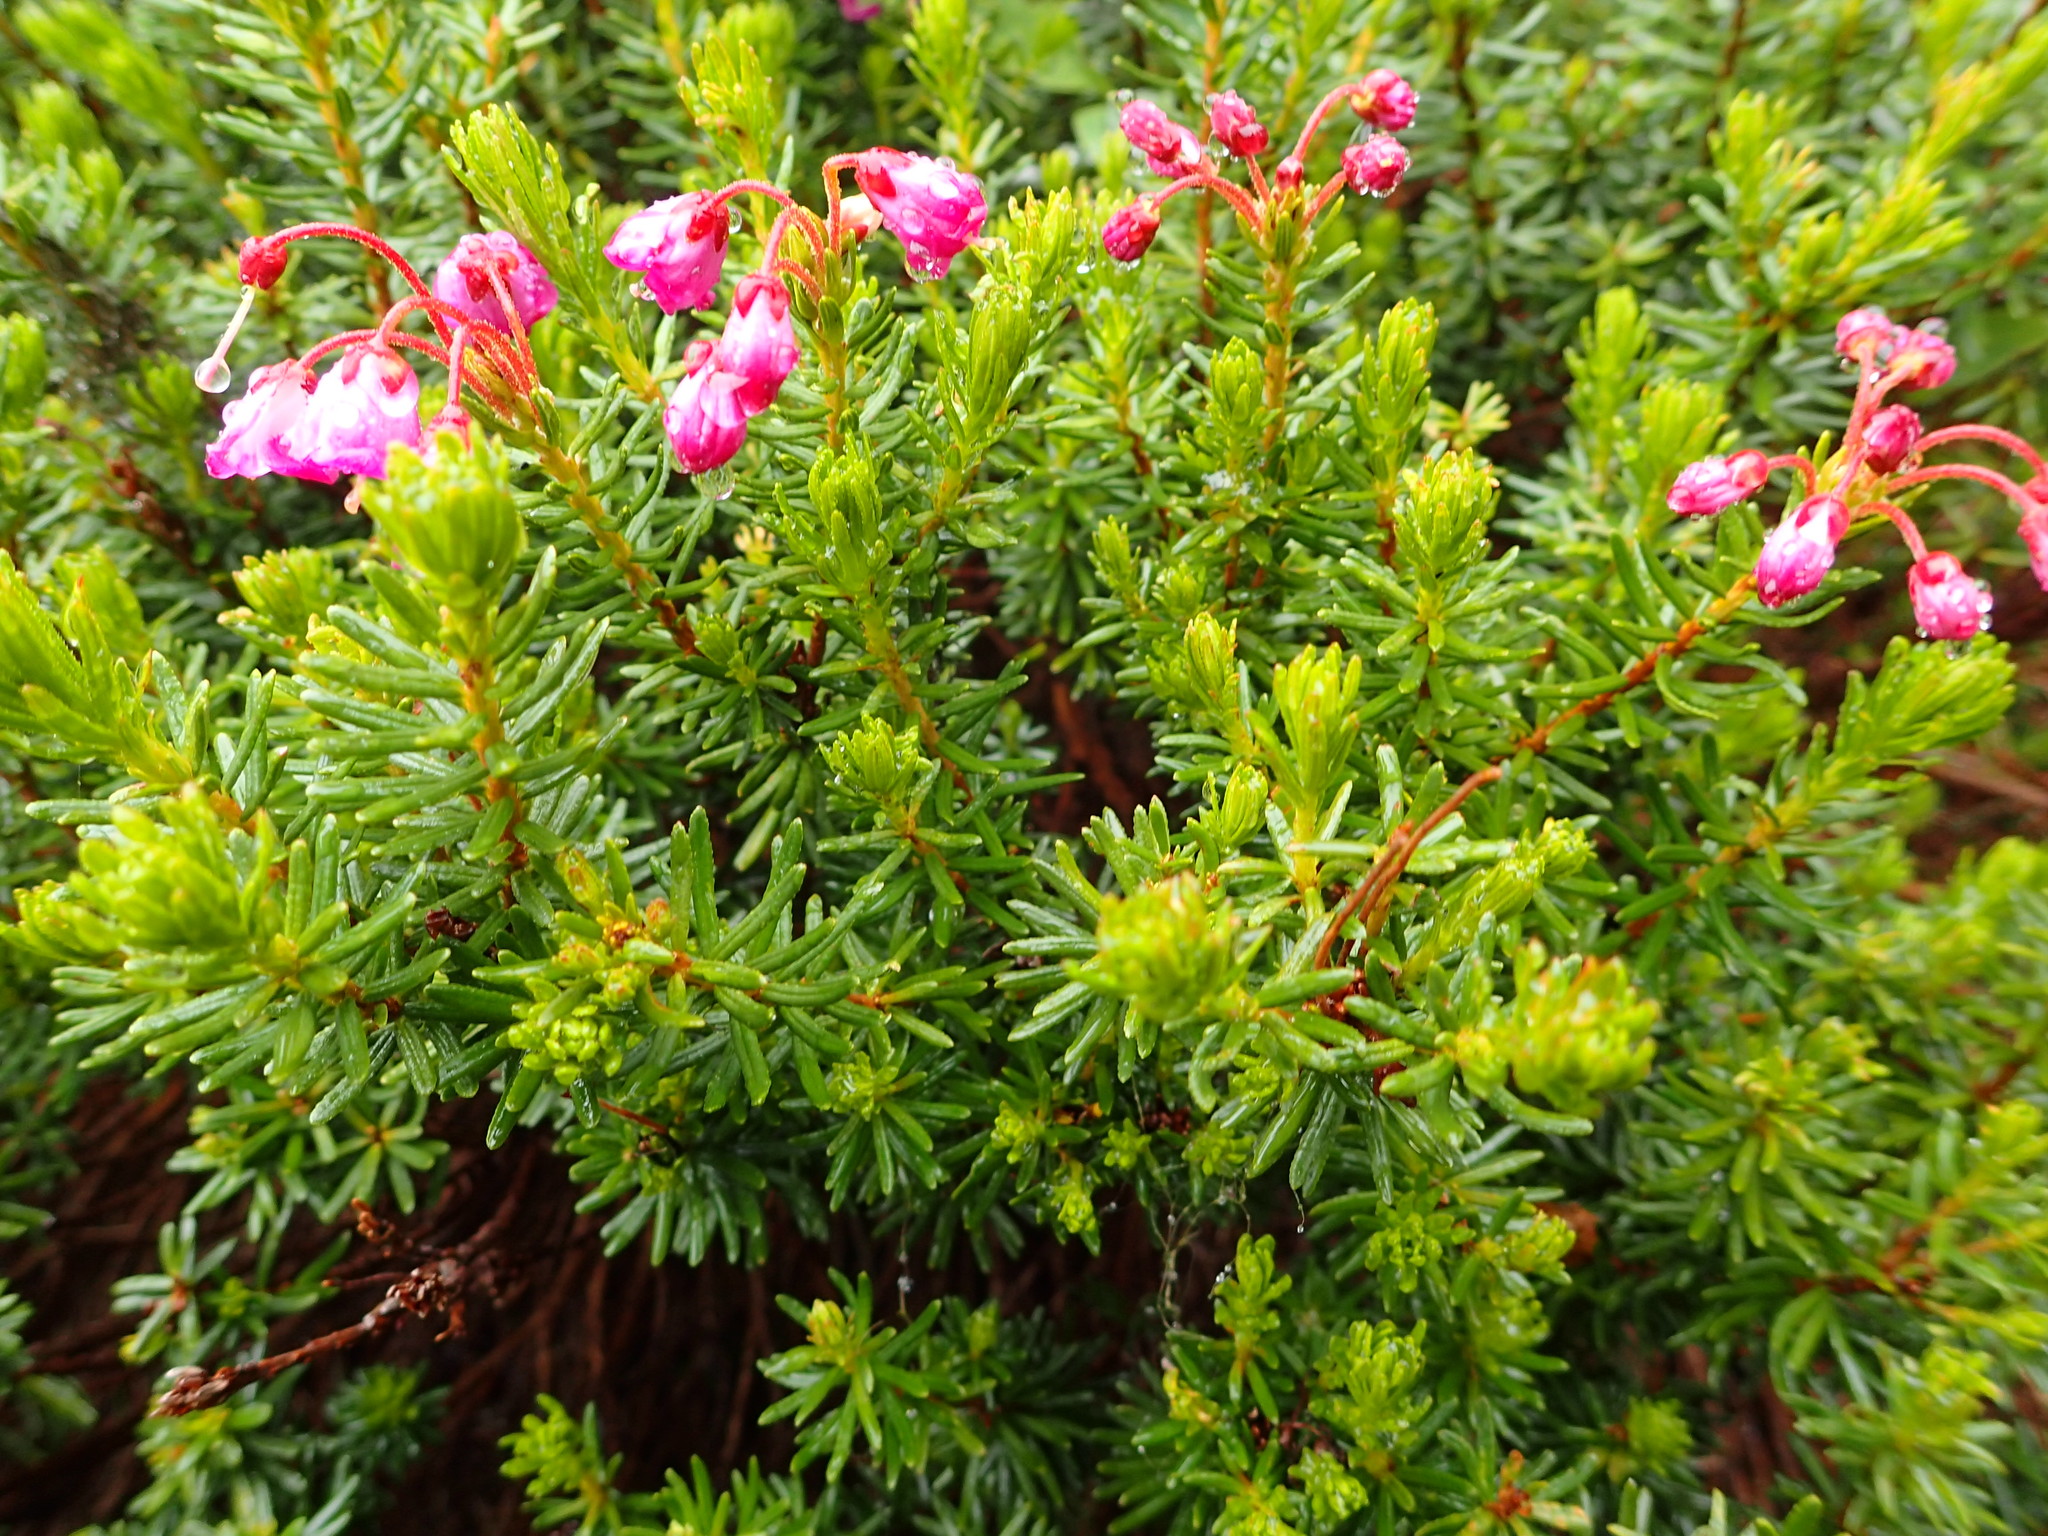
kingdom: Plantae
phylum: Tracheophyta
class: Magnoliopsida
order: Ericales
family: Ericaceae
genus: Phyllodoce
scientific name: Phyllodoce empetriformis
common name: Pink mountain heather
